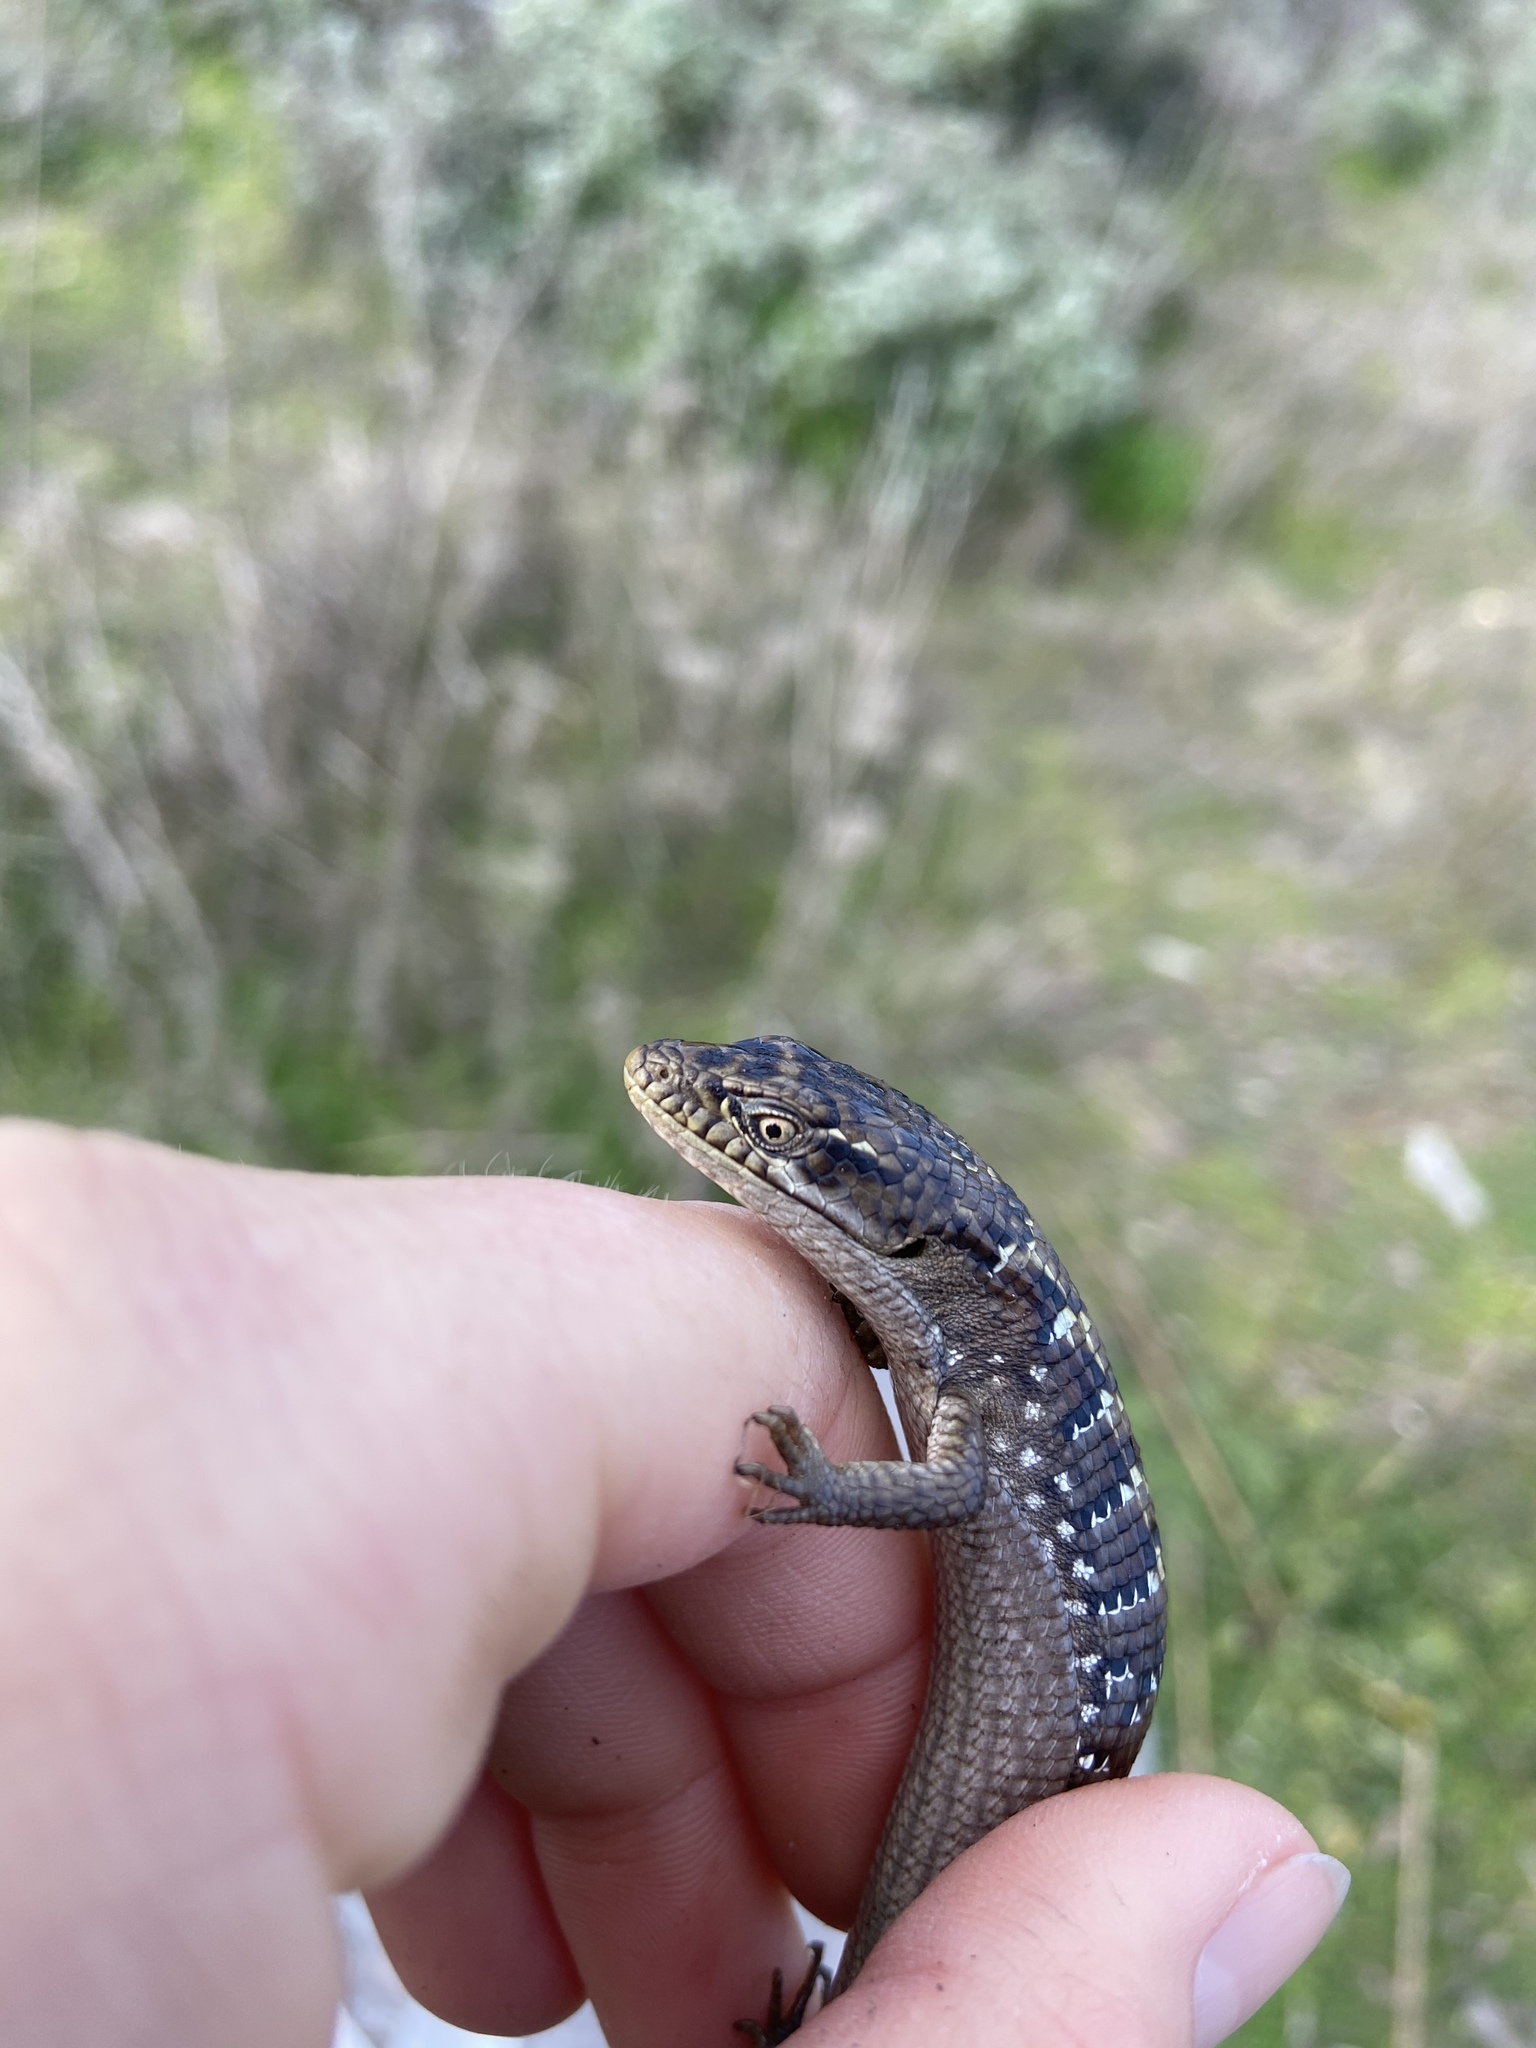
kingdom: Animalia
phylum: Chordata
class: Squamata
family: Anguidae
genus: Elgaria
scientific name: Elgaria multicarinata
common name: Southern alligator lizard
